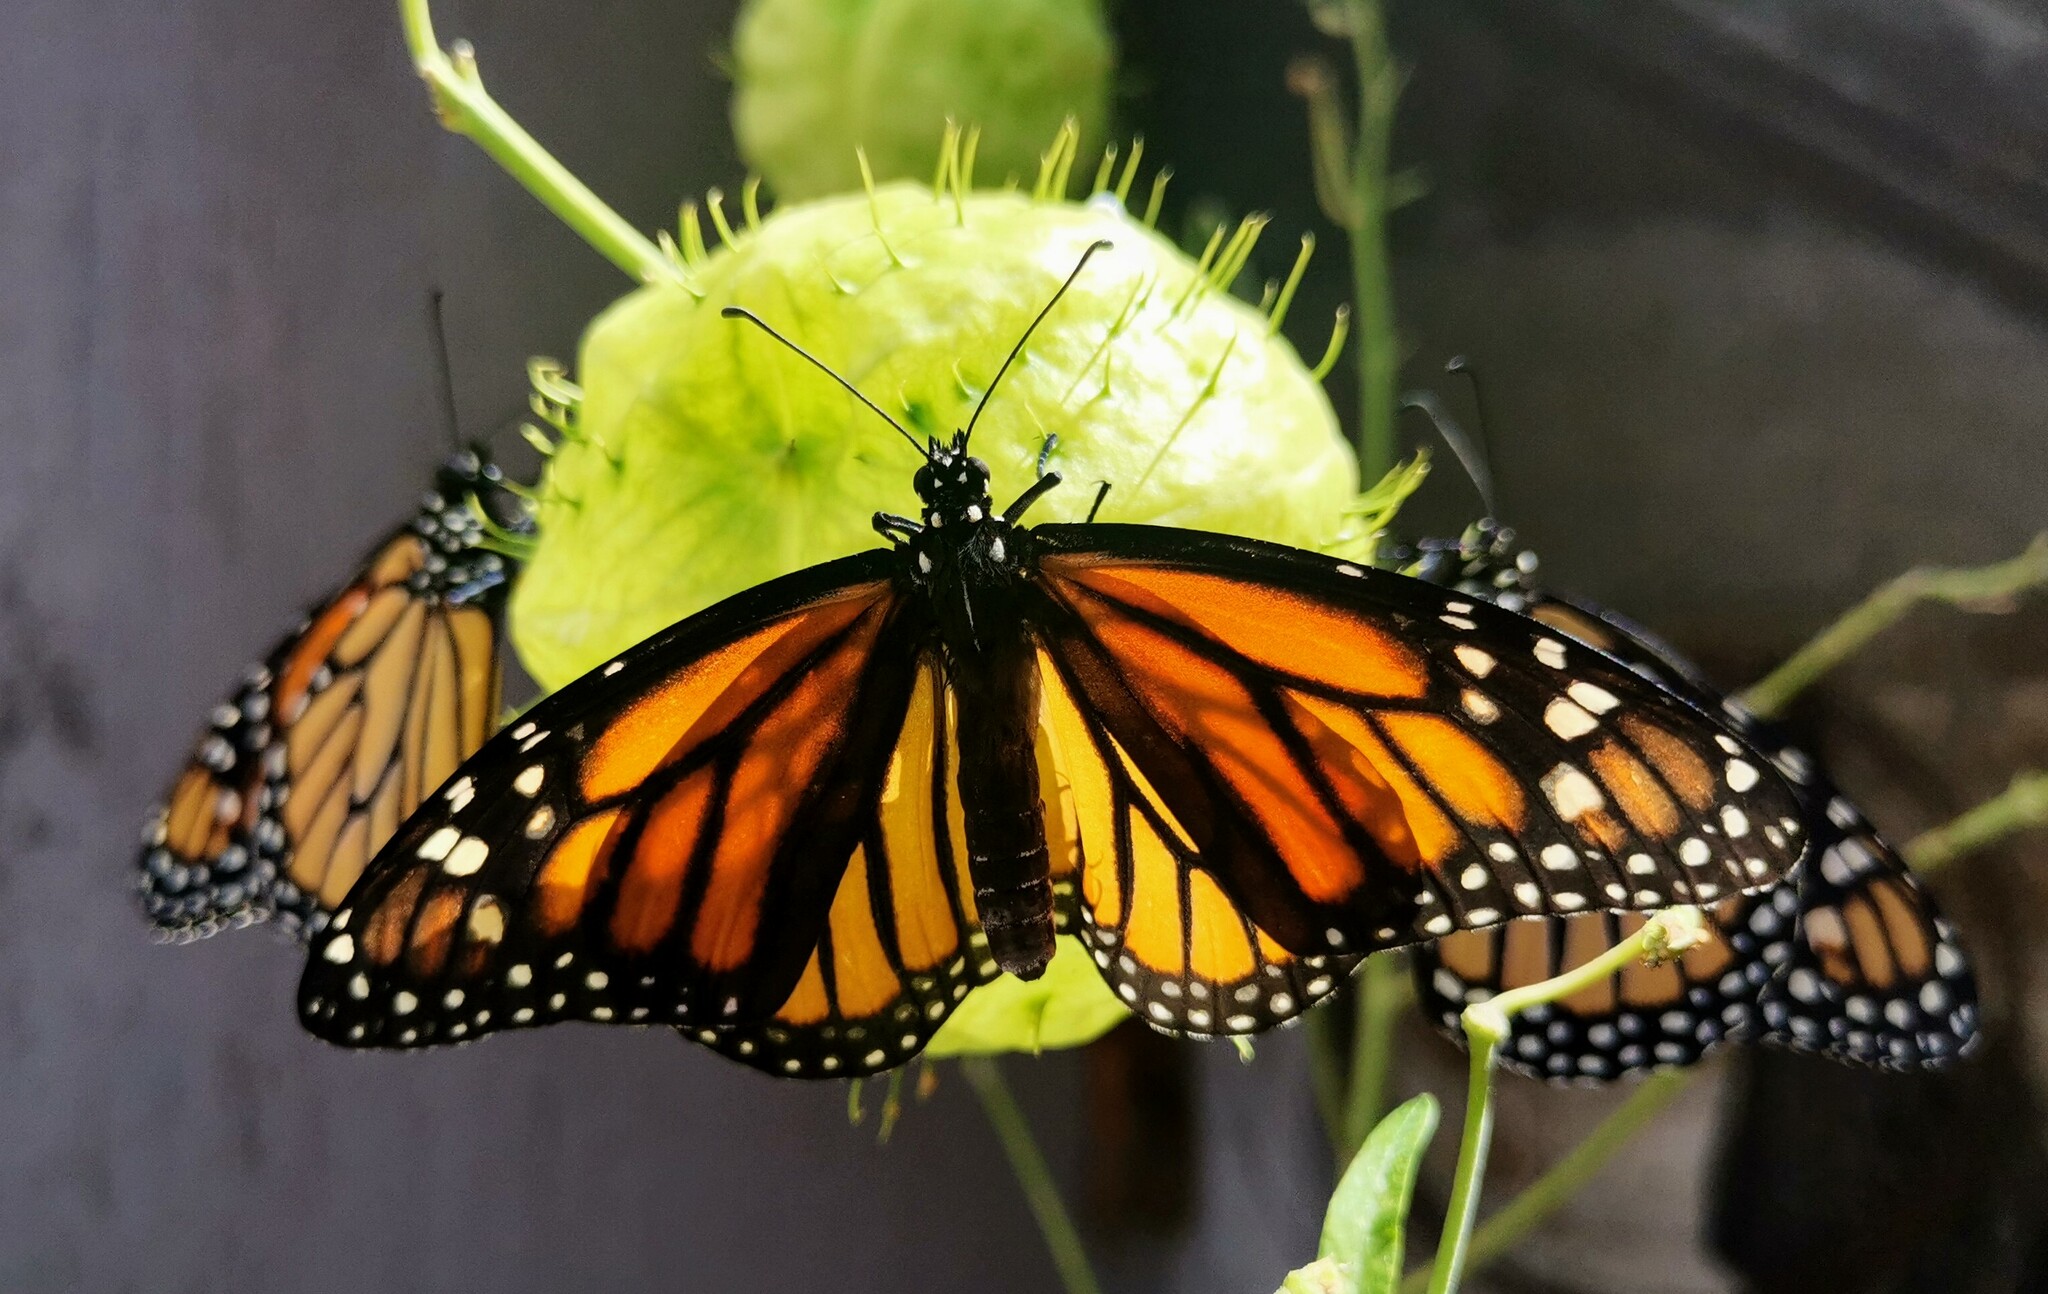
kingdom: Animalia
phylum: Arthropoda
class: Insecta
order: Lepidoptera
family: Nymphalidae
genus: Danaus
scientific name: Danaus plexippus
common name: Monarch
